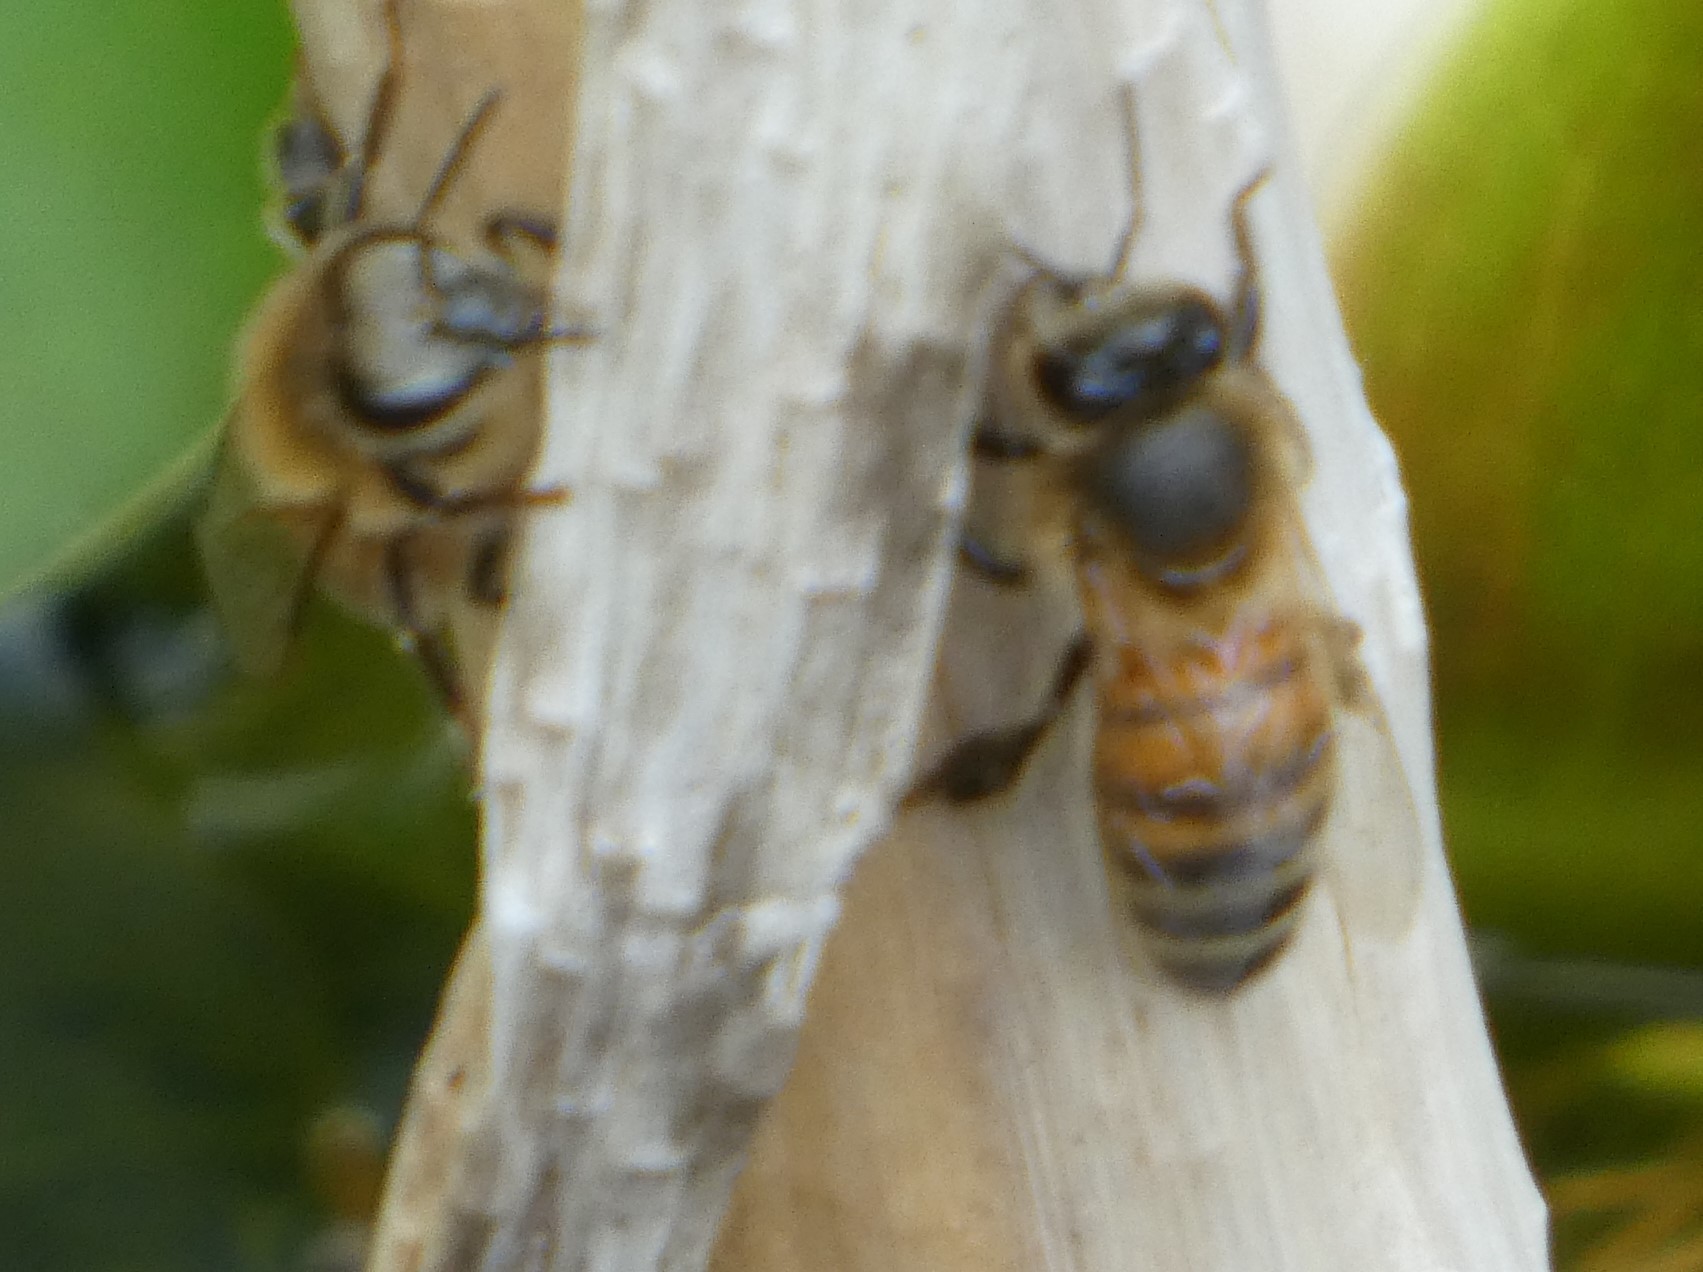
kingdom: Animalia
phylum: Arthropoda
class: Insecta
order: Hymenoptera
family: Apidae
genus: Apis
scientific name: Apis mellifera
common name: Honey bee
